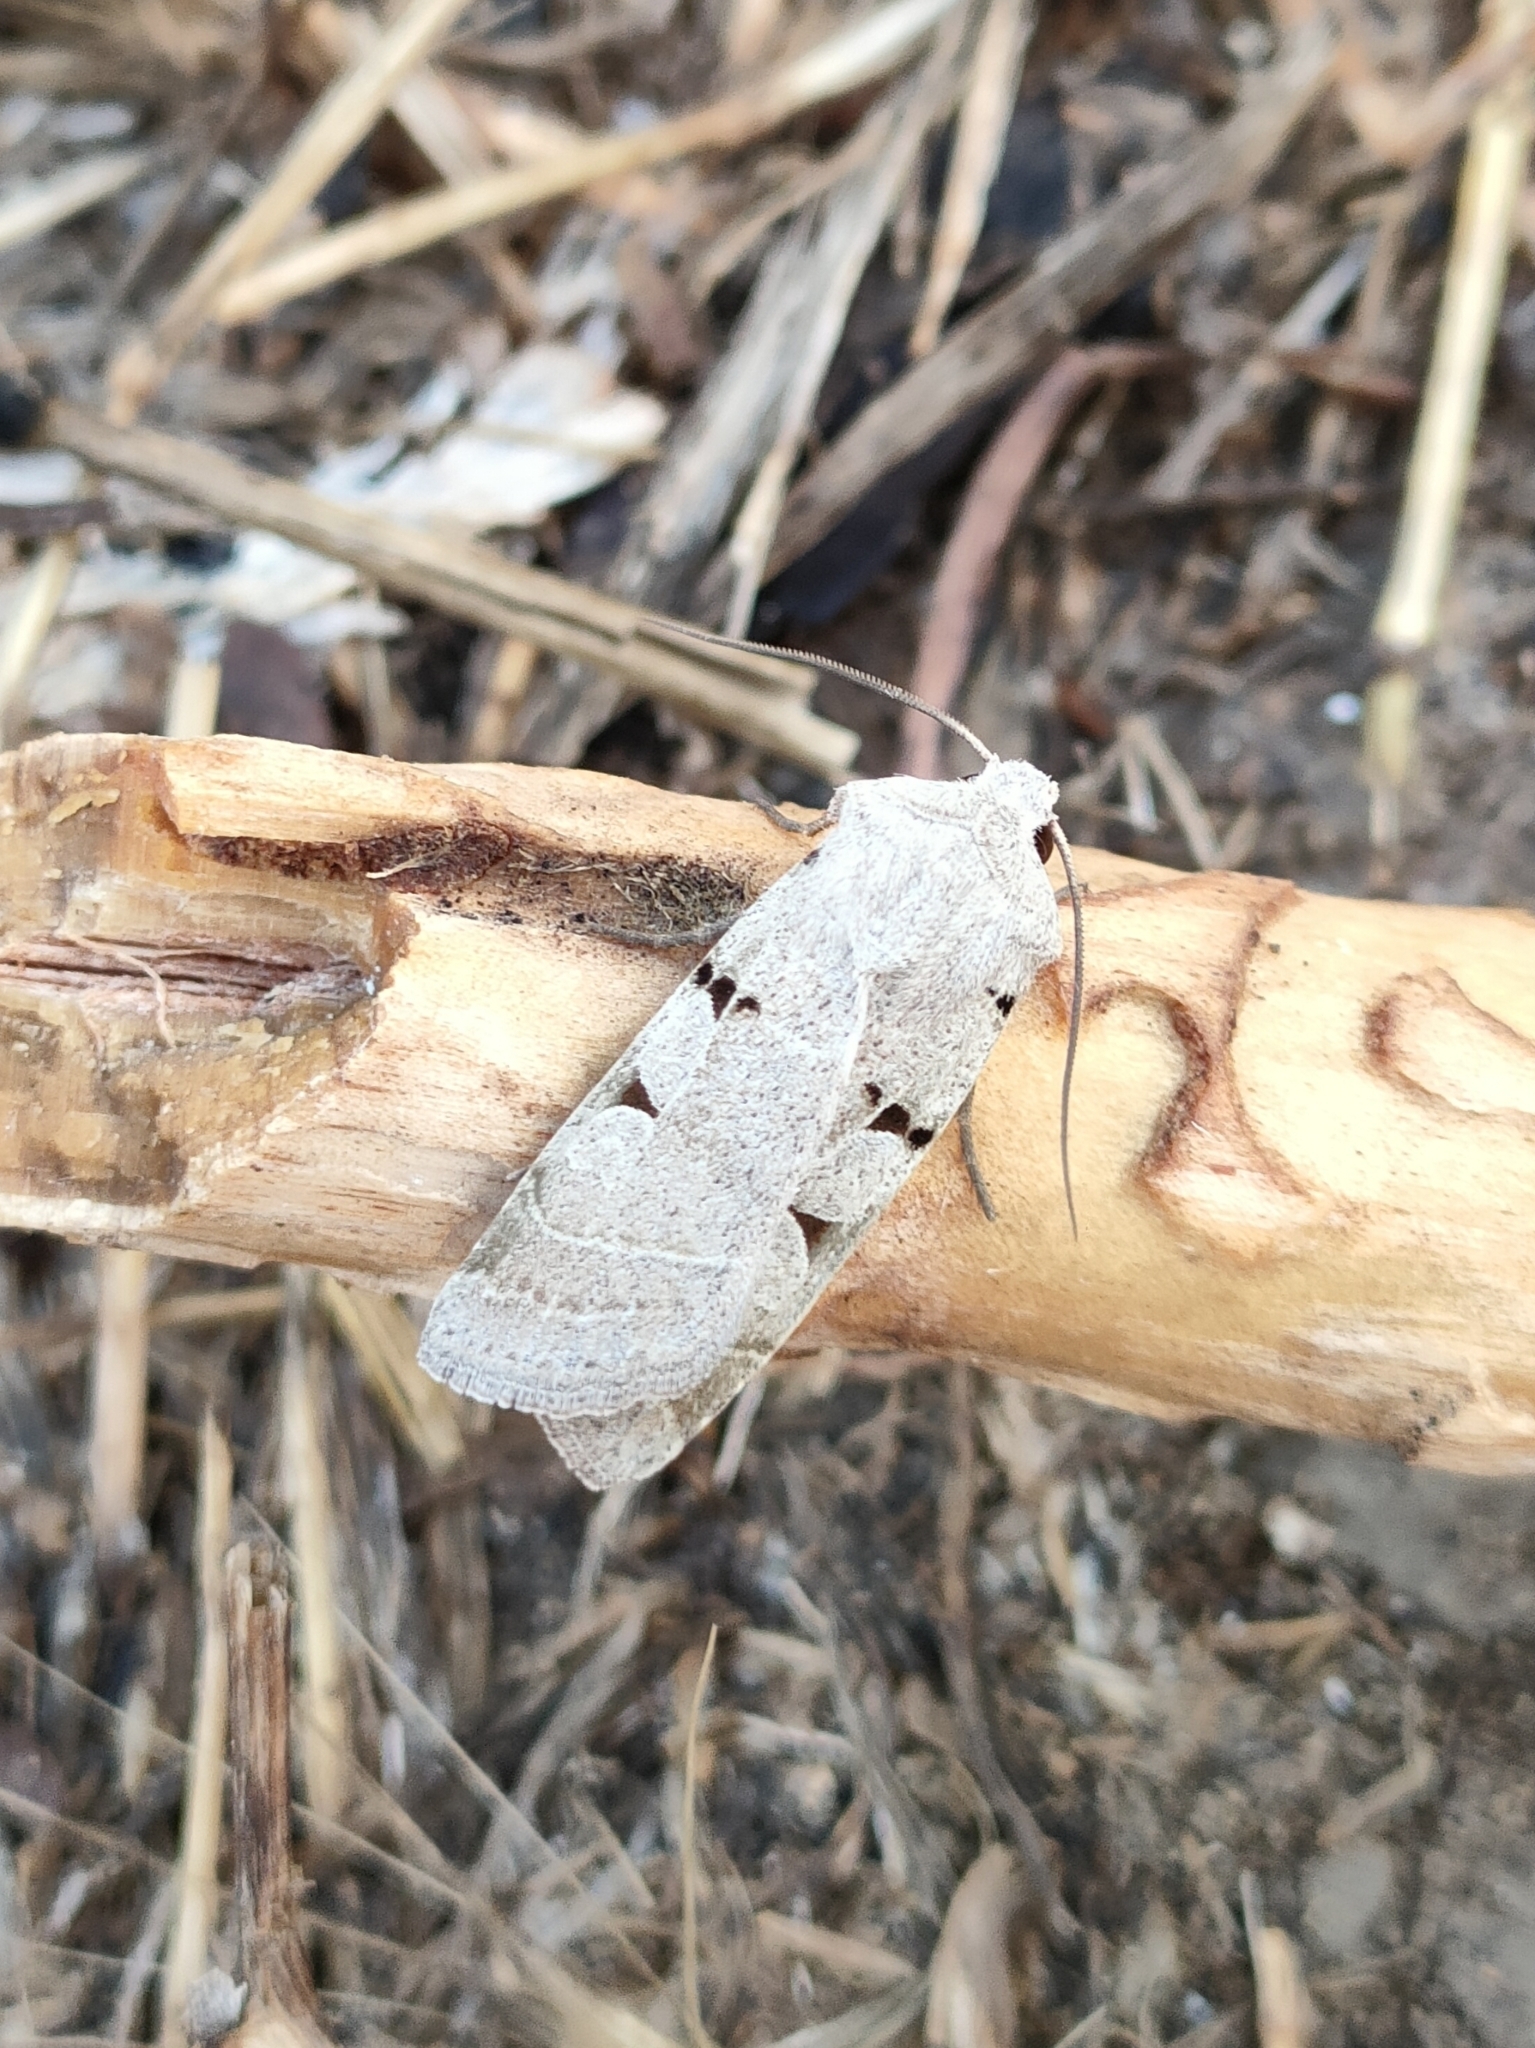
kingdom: Animalia
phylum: Arthropoda
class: Insecta
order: Lepidoptera
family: Noctuidae
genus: Eugnorisma
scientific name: Eugnorisma glareosa
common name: Autumnal rustic
